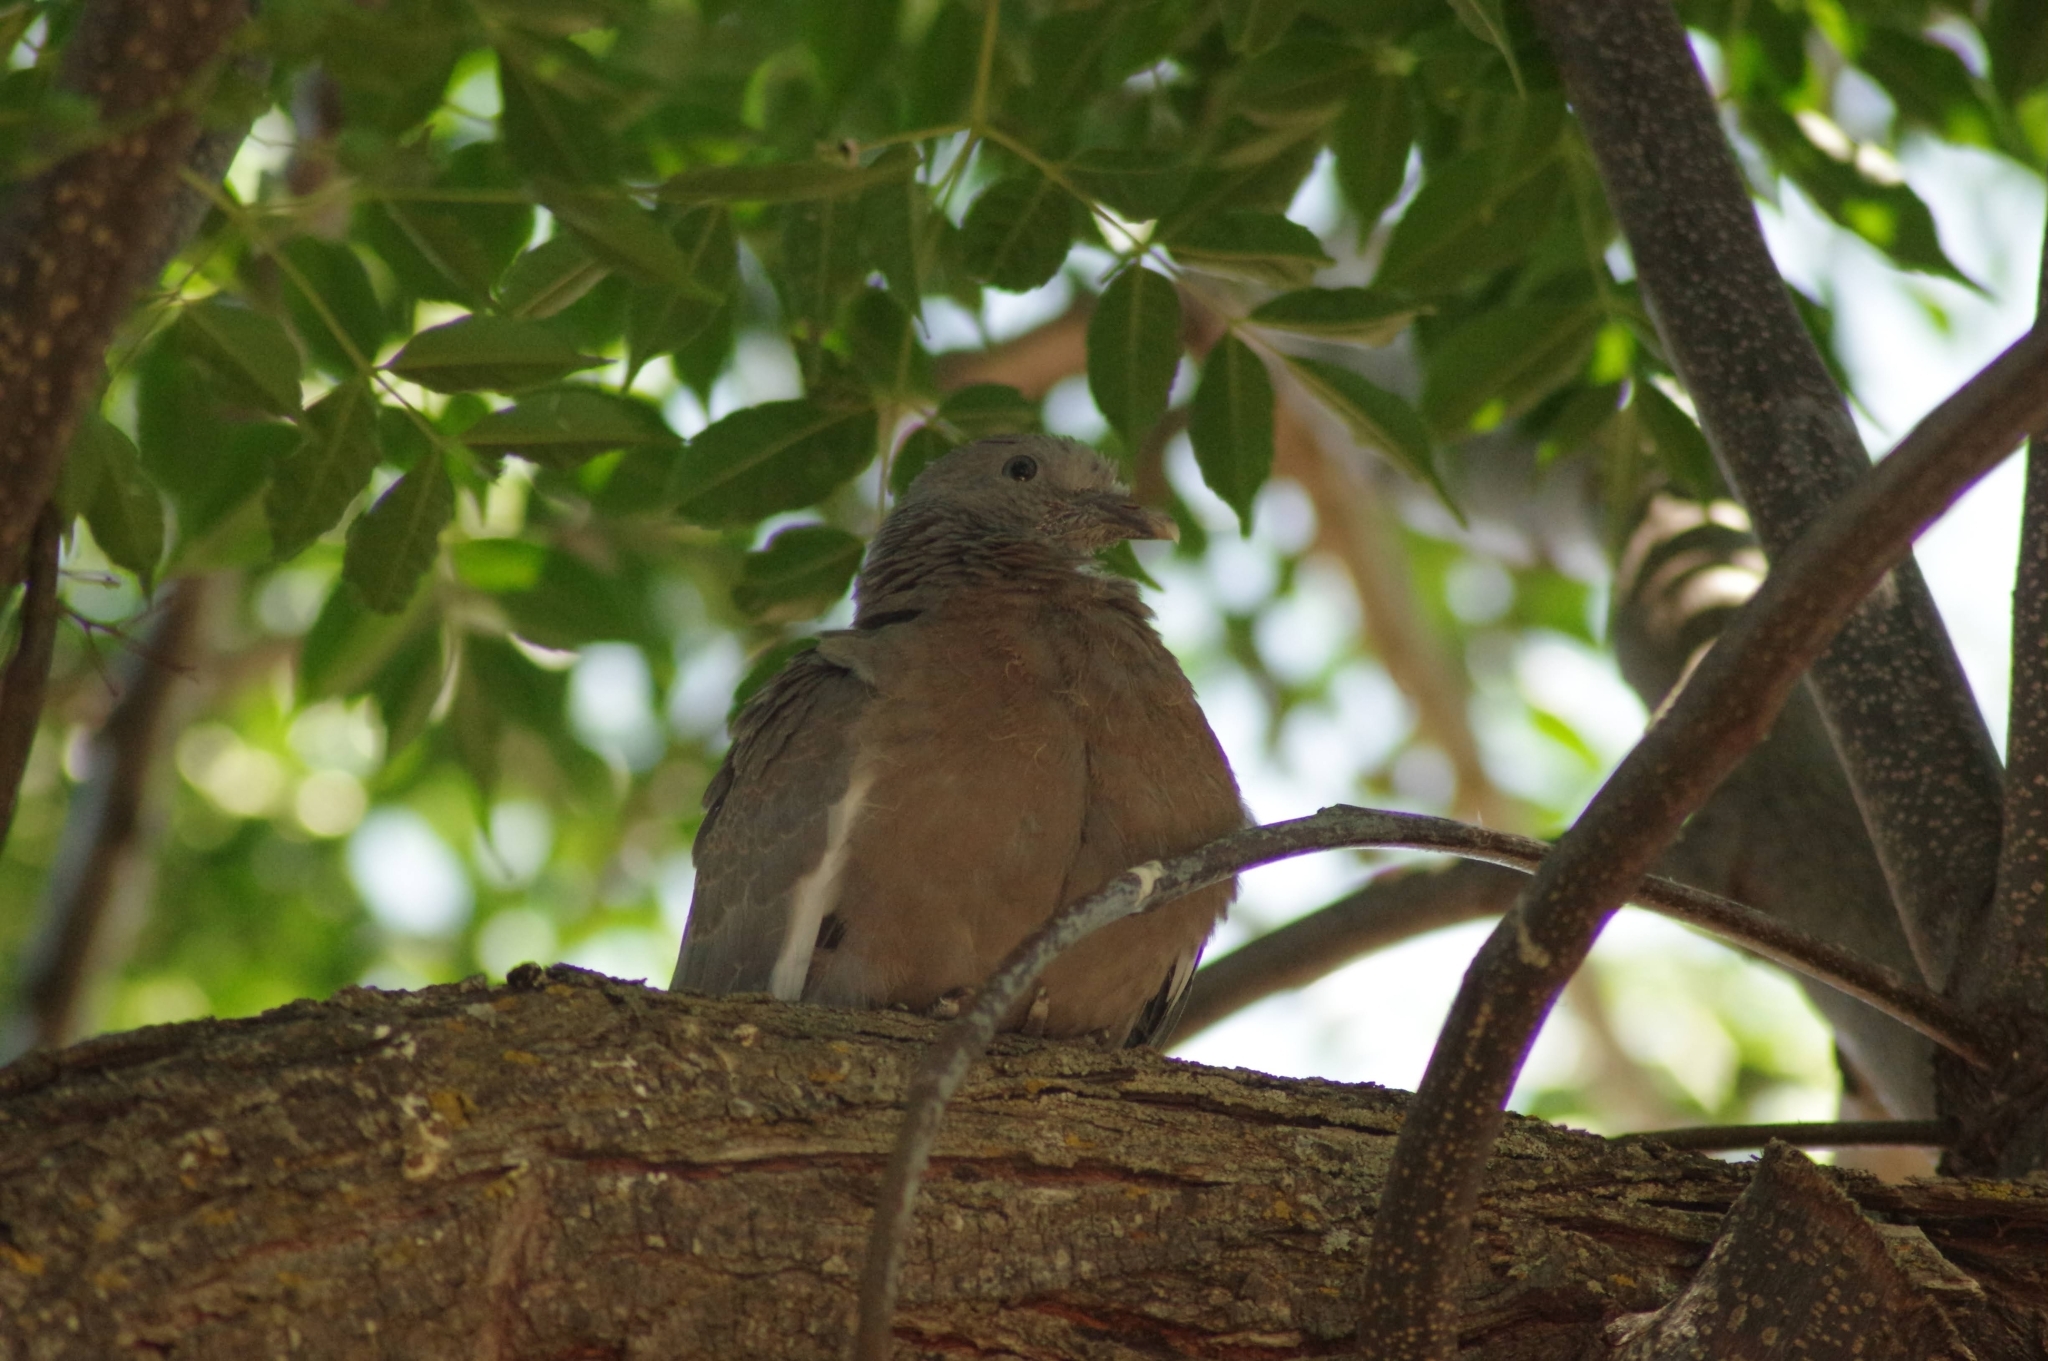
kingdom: Animalia
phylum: Chordata
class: Aves
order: Columbiformes
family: Columbidae
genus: Columba
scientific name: Columba palumbus
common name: Common wood pigeon
